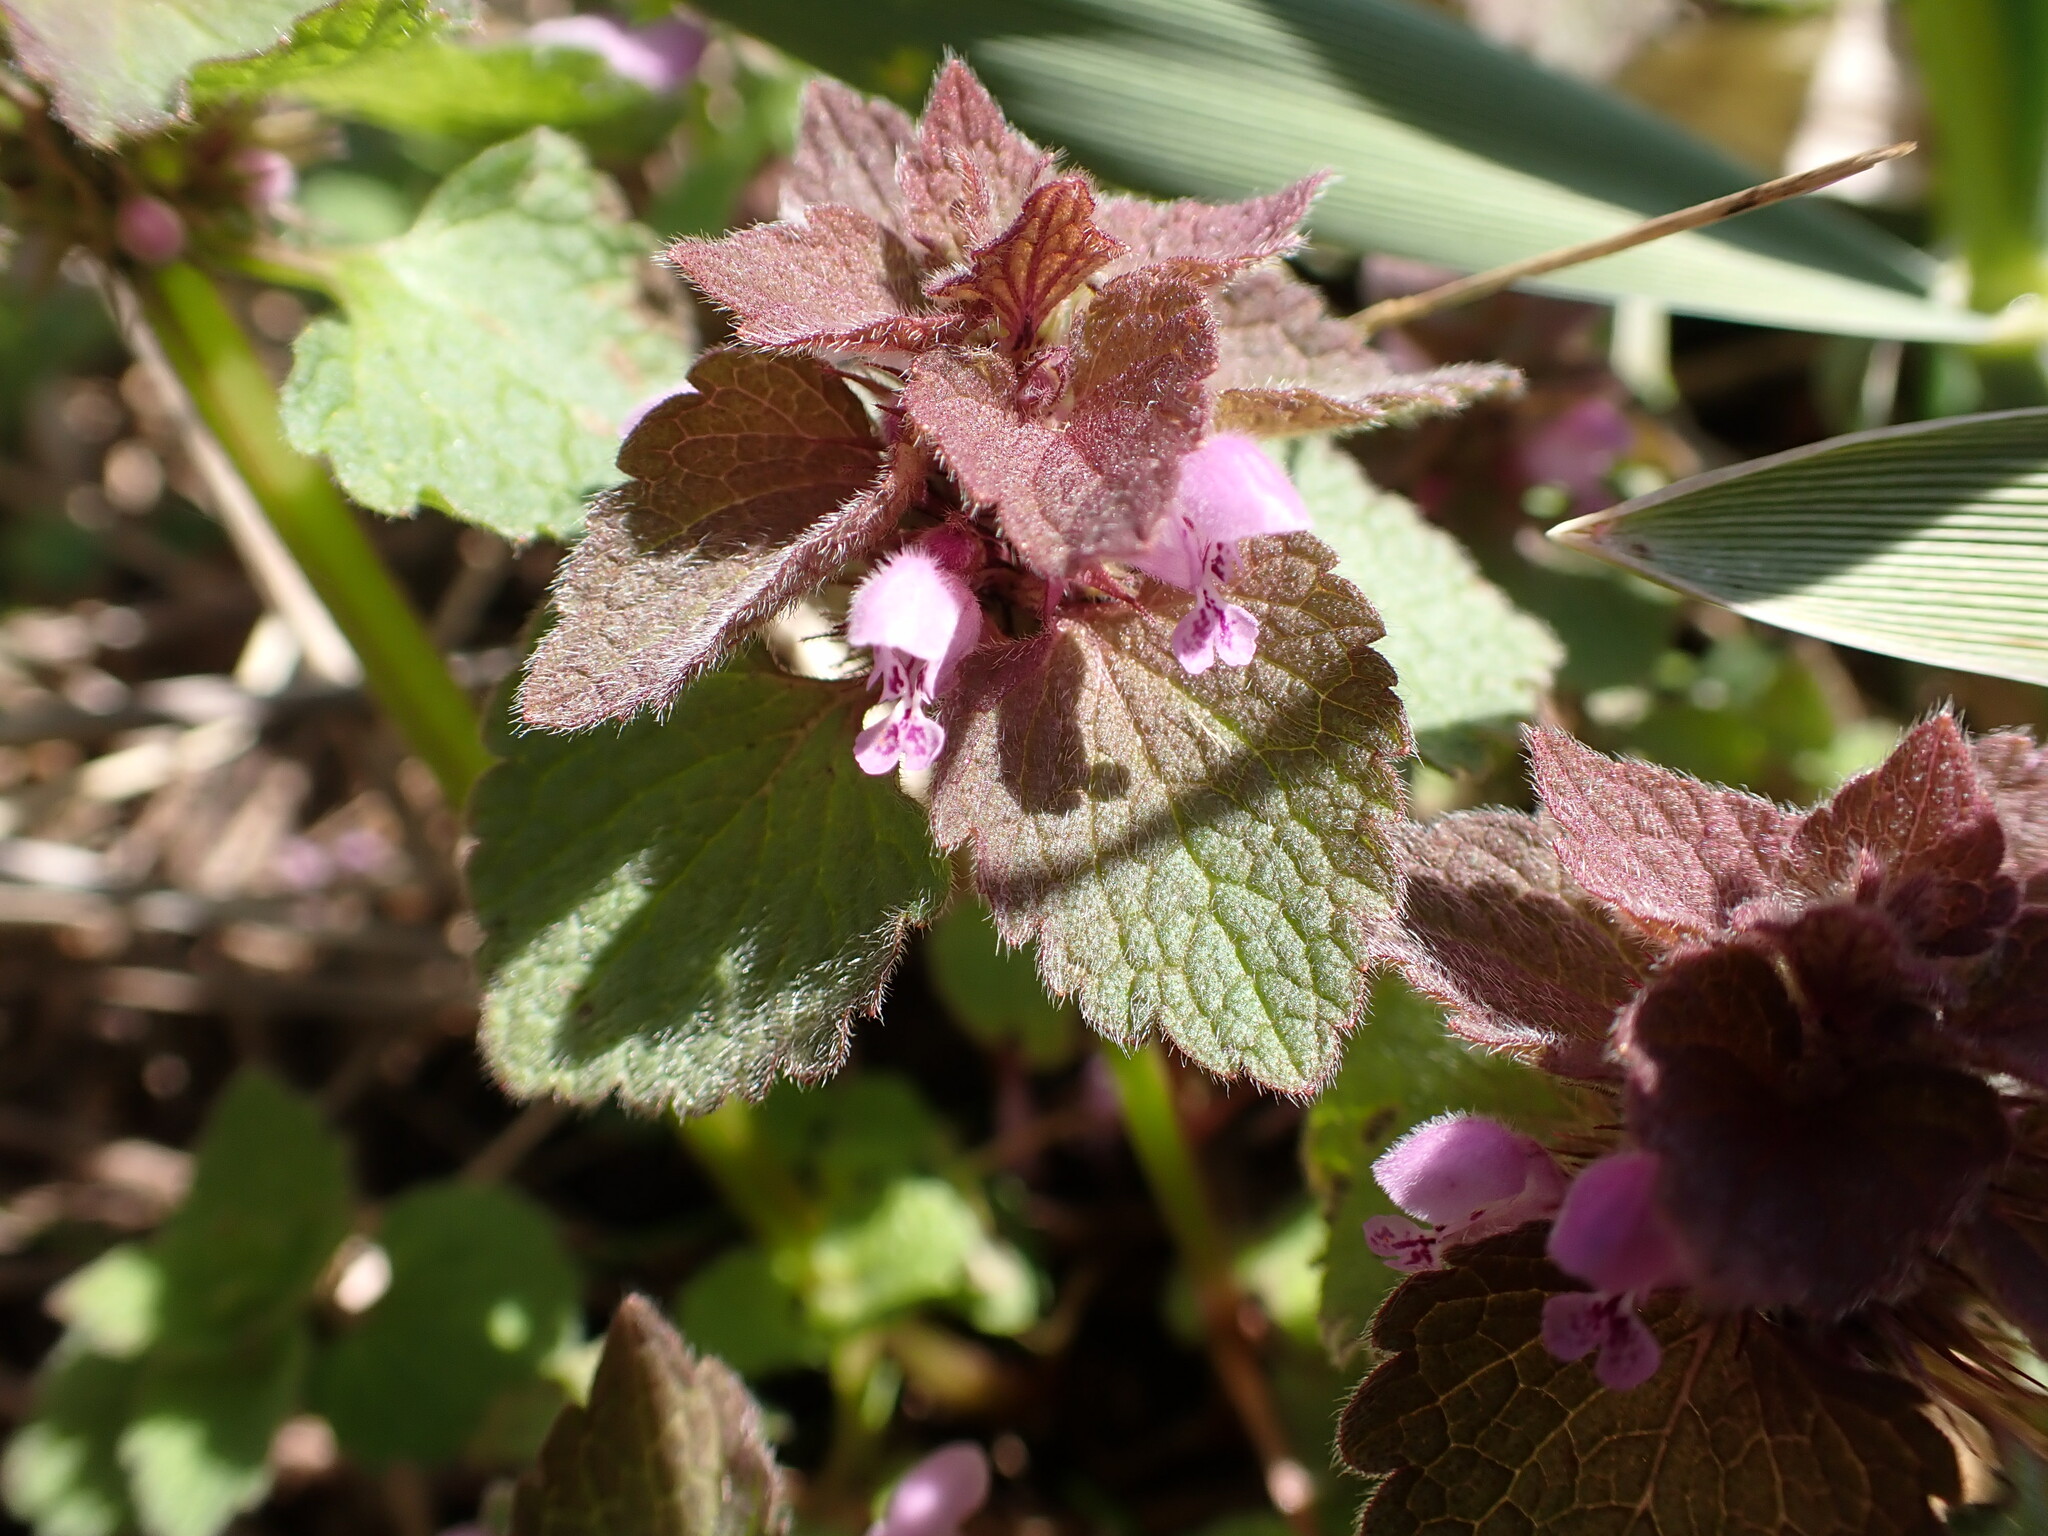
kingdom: Plantae
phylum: Tracheophyta
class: Magnoliopsida
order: Lamiales
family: Lamiaceae
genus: Lamium
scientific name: Lamium purpureum
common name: Red dead-nettle
